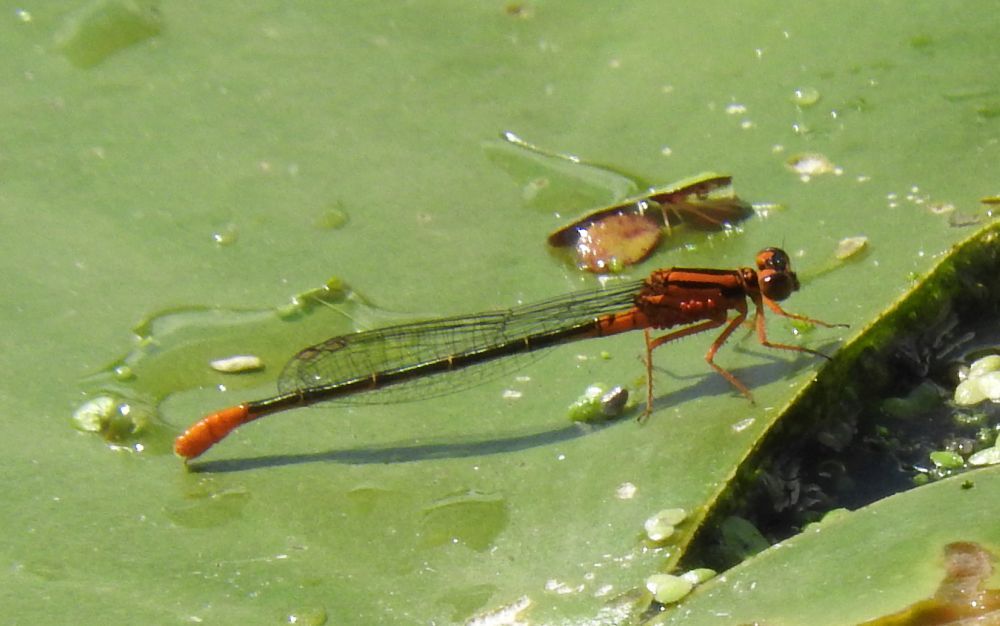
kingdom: Animalia
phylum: Arthropoda
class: Insecta
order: Odonata
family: Coenagrionidae
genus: Ischnura
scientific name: Ischnura kellicotti
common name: Lilypad forktail
